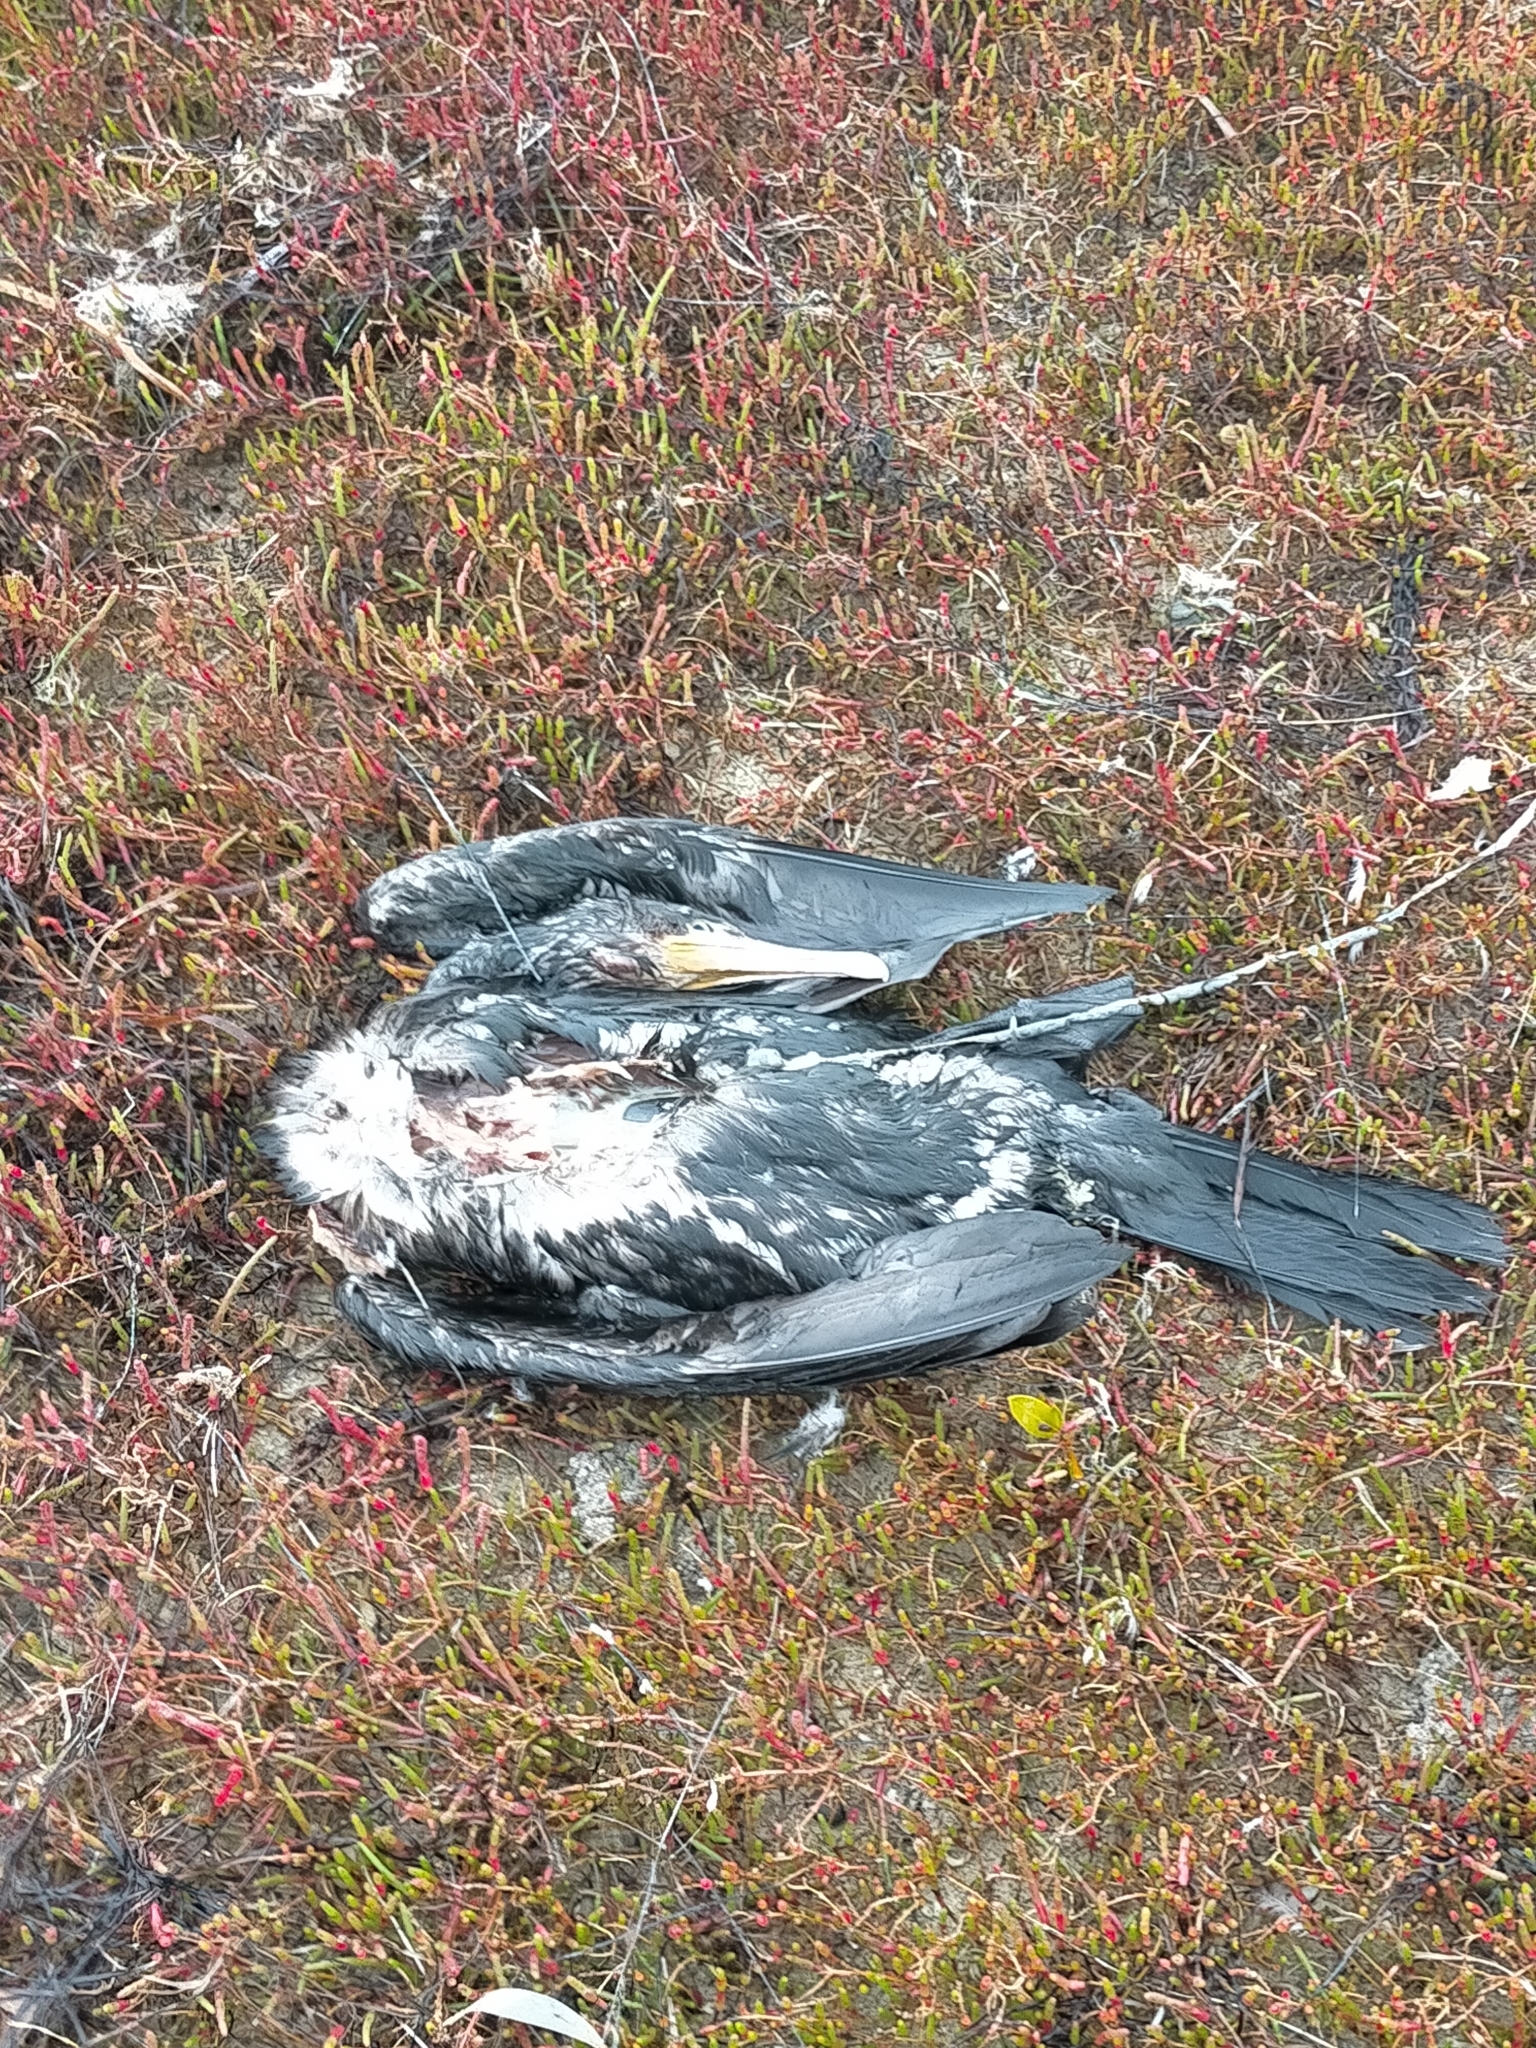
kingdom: Animalia
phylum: Chordata
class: Aves
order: Suliformes
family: Phalacrocoracidae
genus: Phalacrocorax
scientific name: Phalacrocorax carbo
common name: Great cormorant
